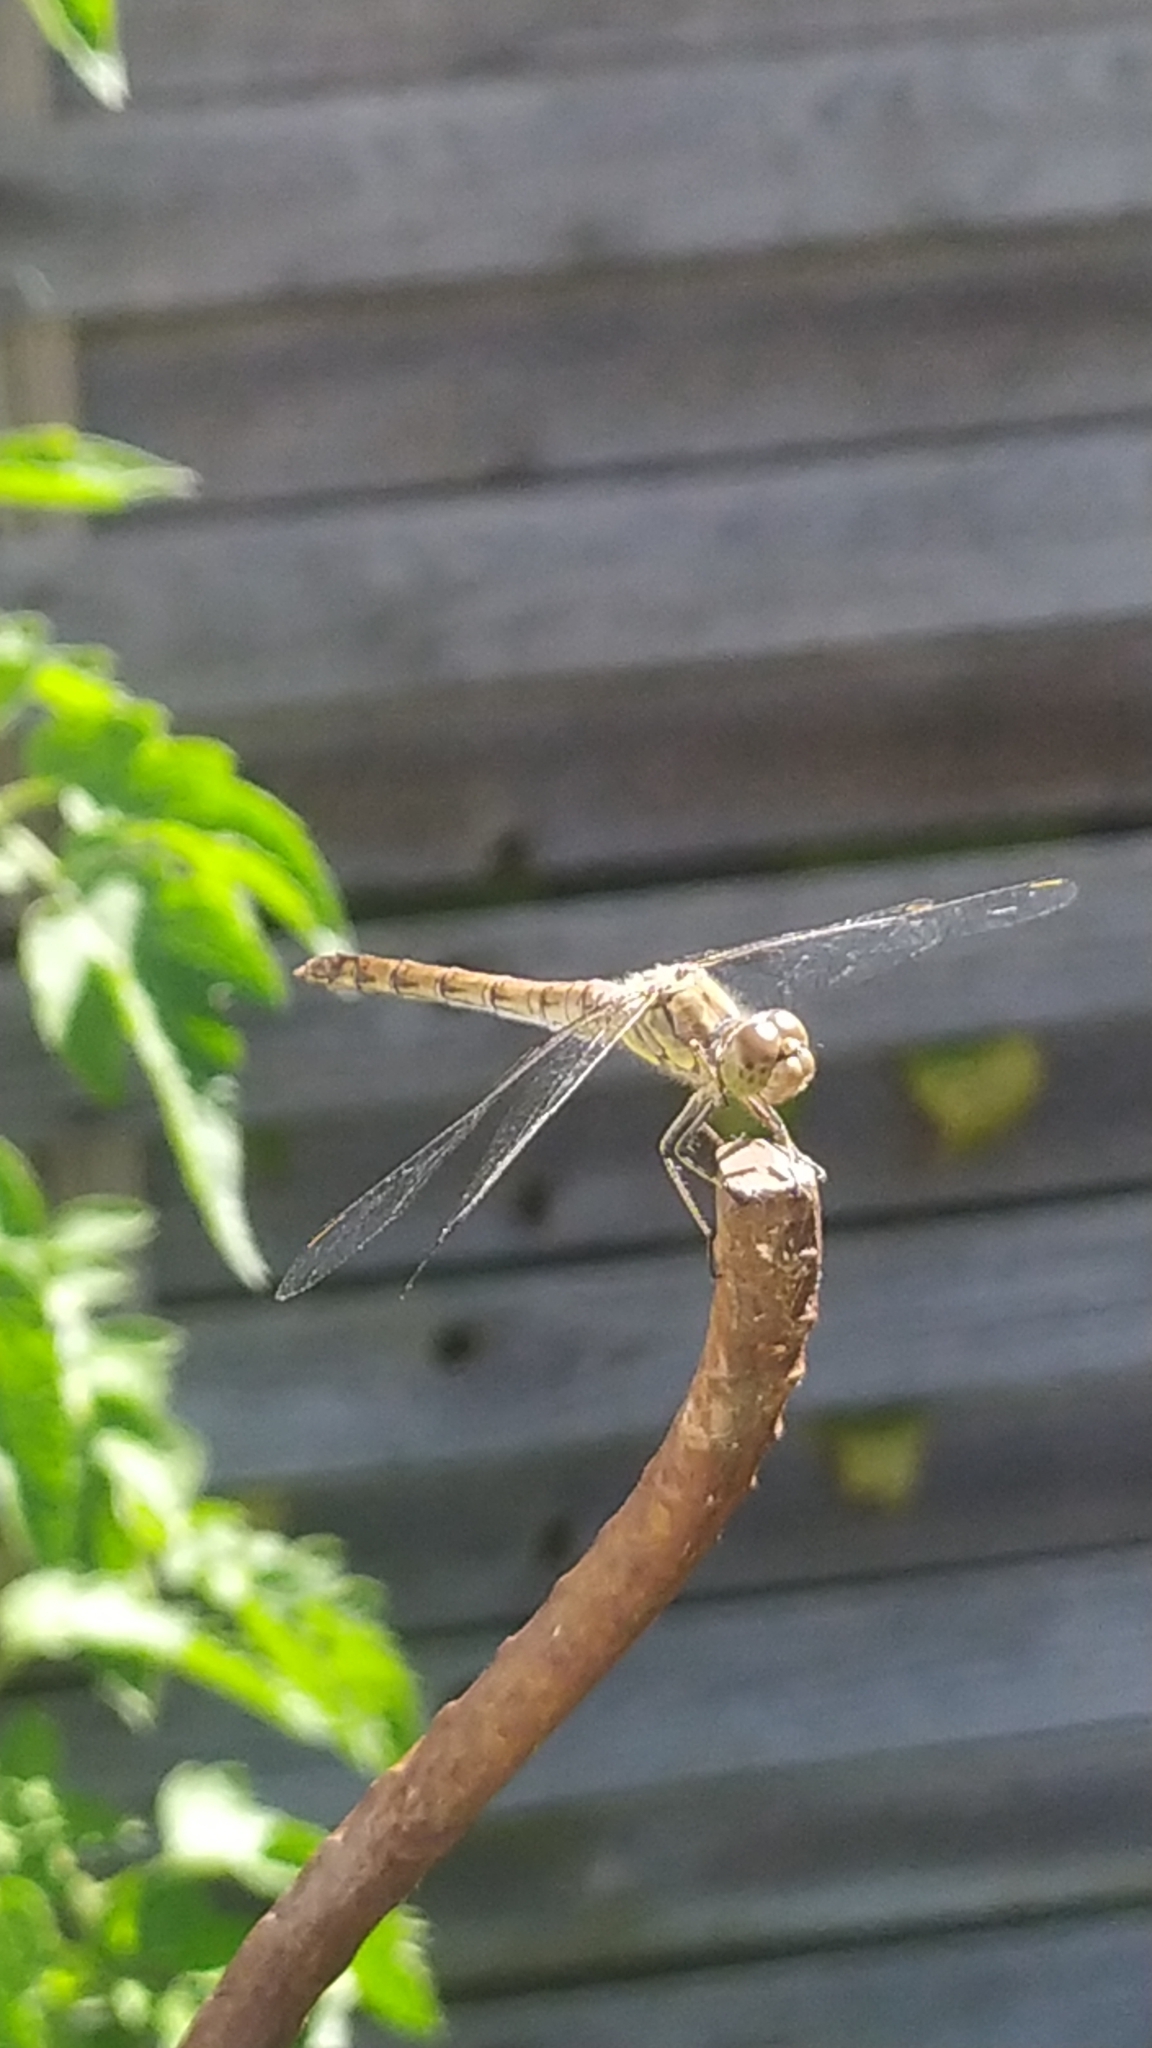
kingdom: Animalia
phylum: Arthropoda
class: Insecta
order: Odonata
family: Libellulidae
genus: Sympetrum
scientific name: Sympetrum striolatum
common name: Common darter
